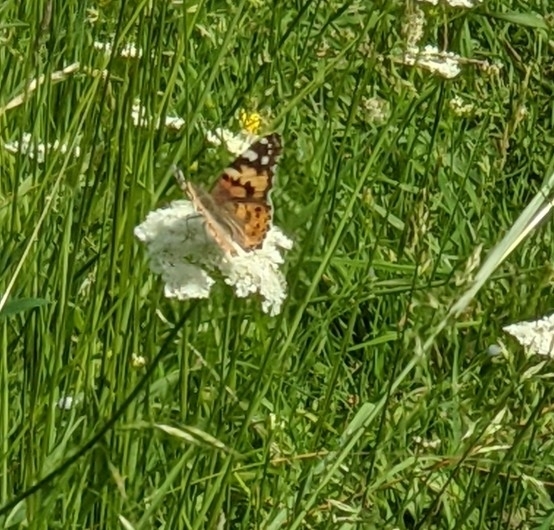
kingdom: Animalia
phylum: Arthropoda
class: Insecta
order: Lepidoptera
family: Nymphalidae
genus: Vanessa
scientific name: Vanessa cardui
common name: Painted lady
